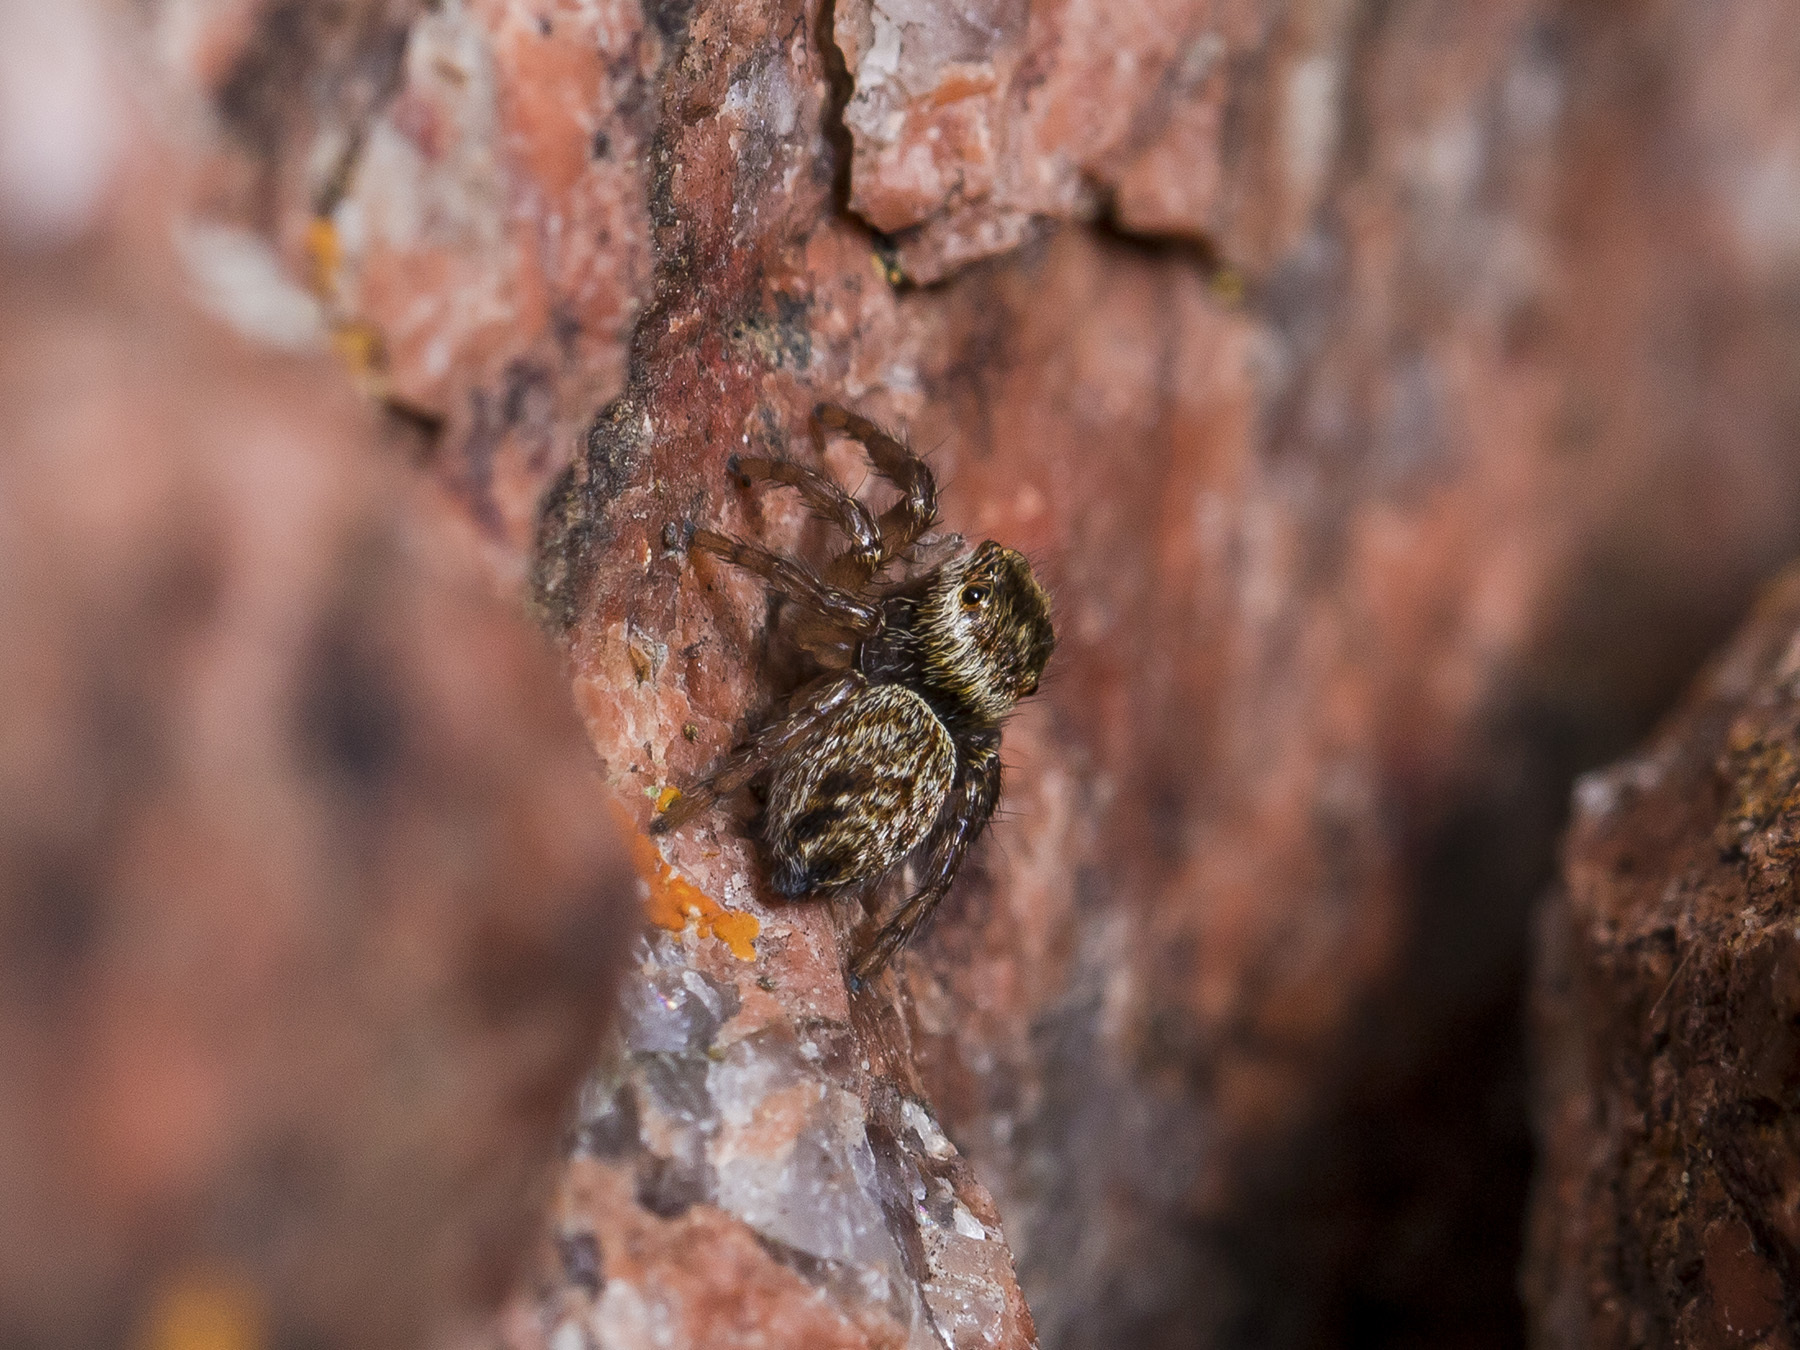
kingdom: Animalia
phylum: Arthropoda
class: Arachnida
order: Araneae
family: Salticidae
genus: Evarcha
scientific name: Evarcha arcuata
